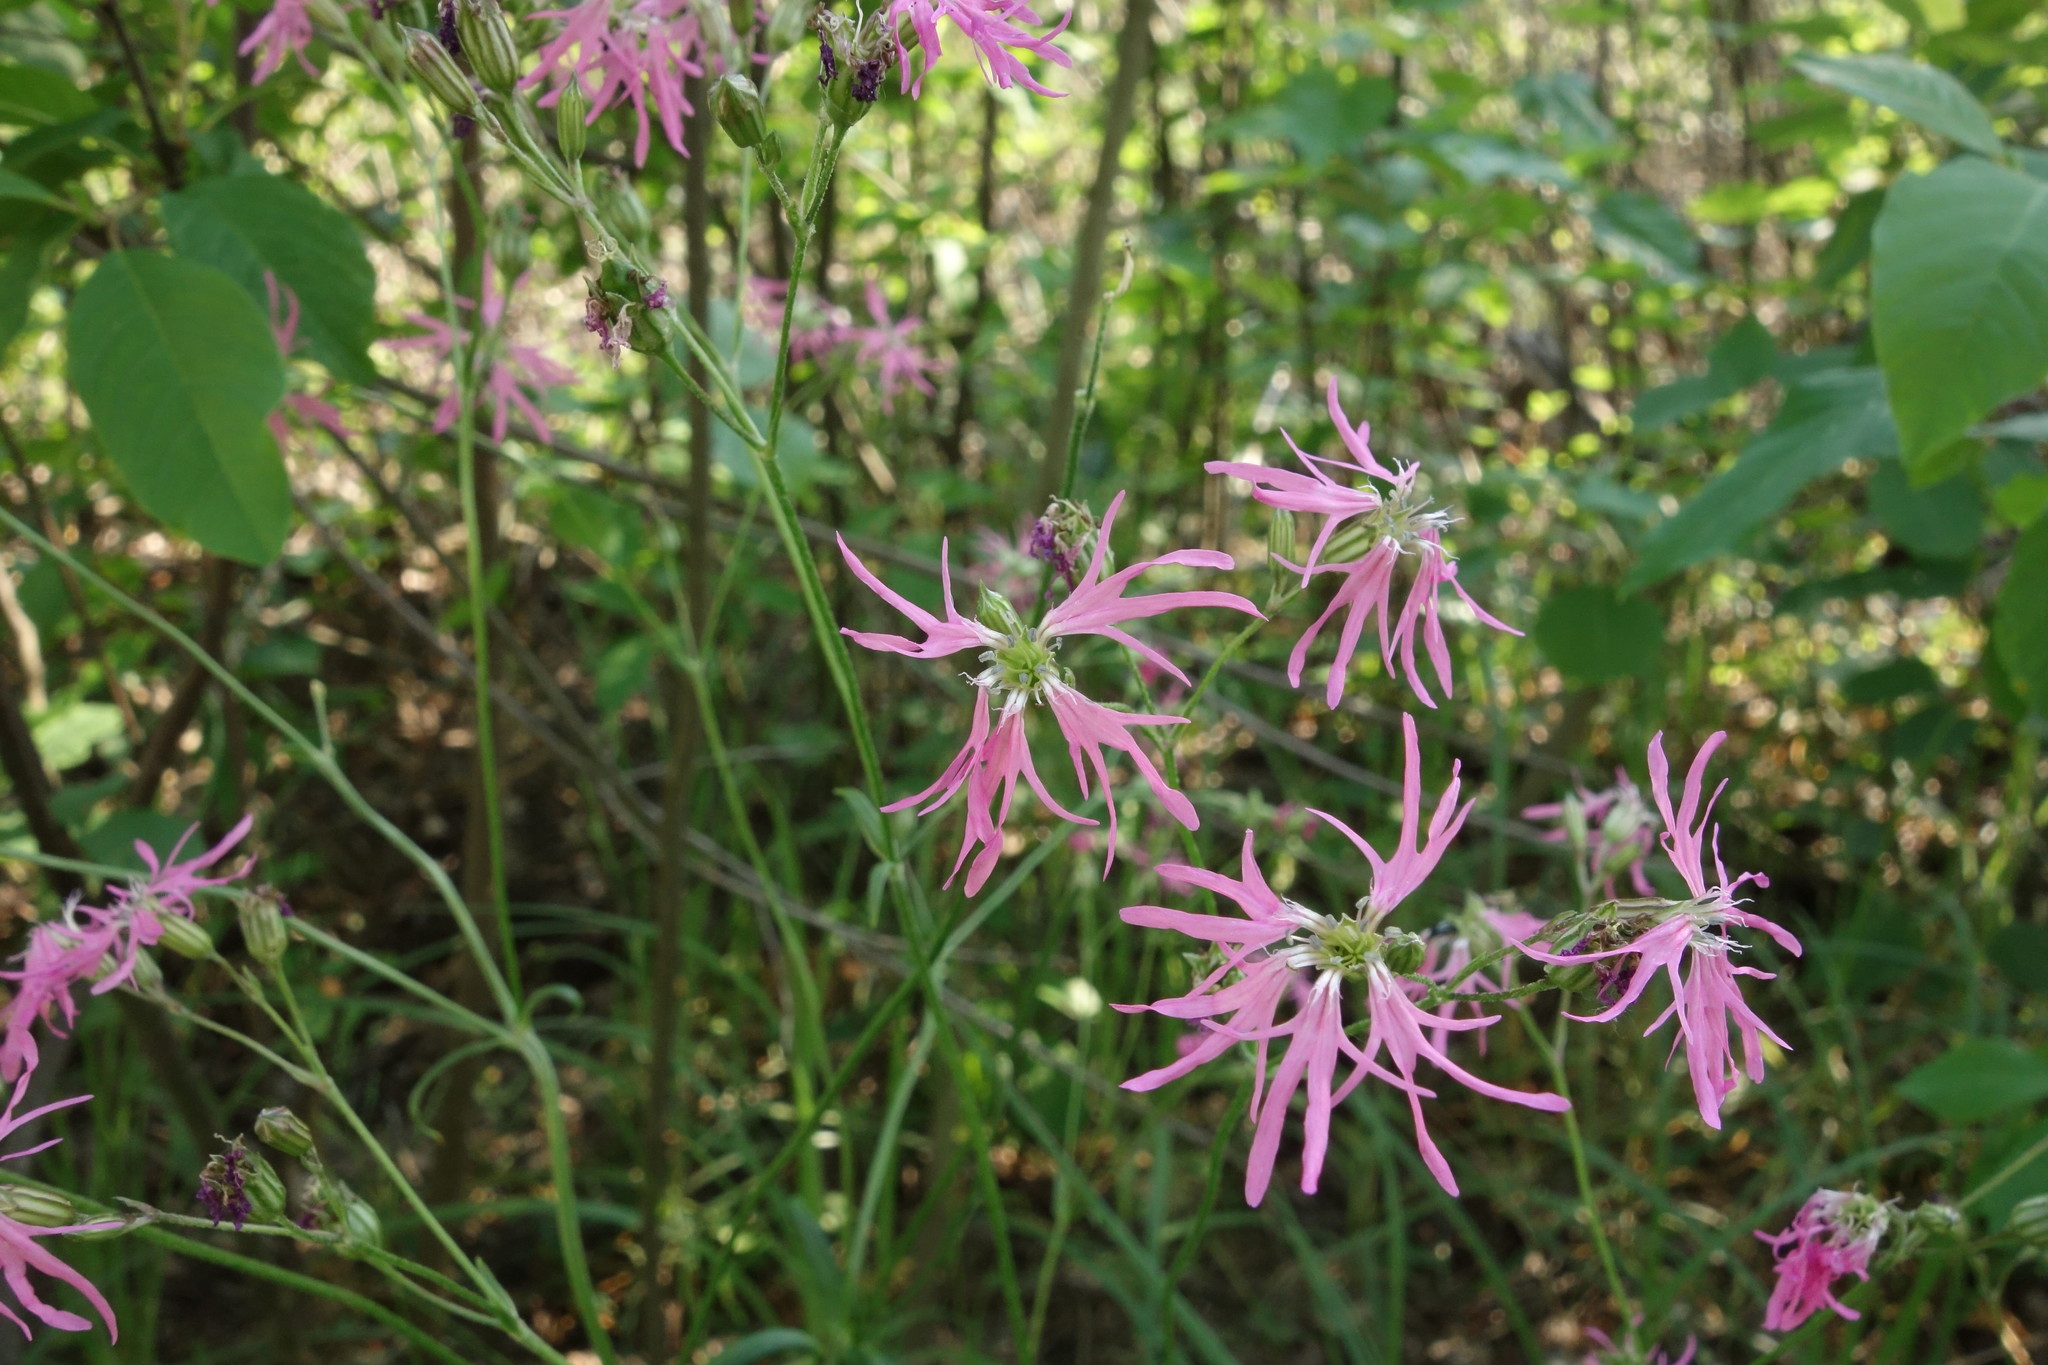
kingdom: Plantae
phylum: Tracheophyta
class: Magnoliopsida
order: Caryophyllales
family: Caryophyllaceae
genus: Silene
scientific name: Silene flos-cuculi
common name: Ragged-robin
